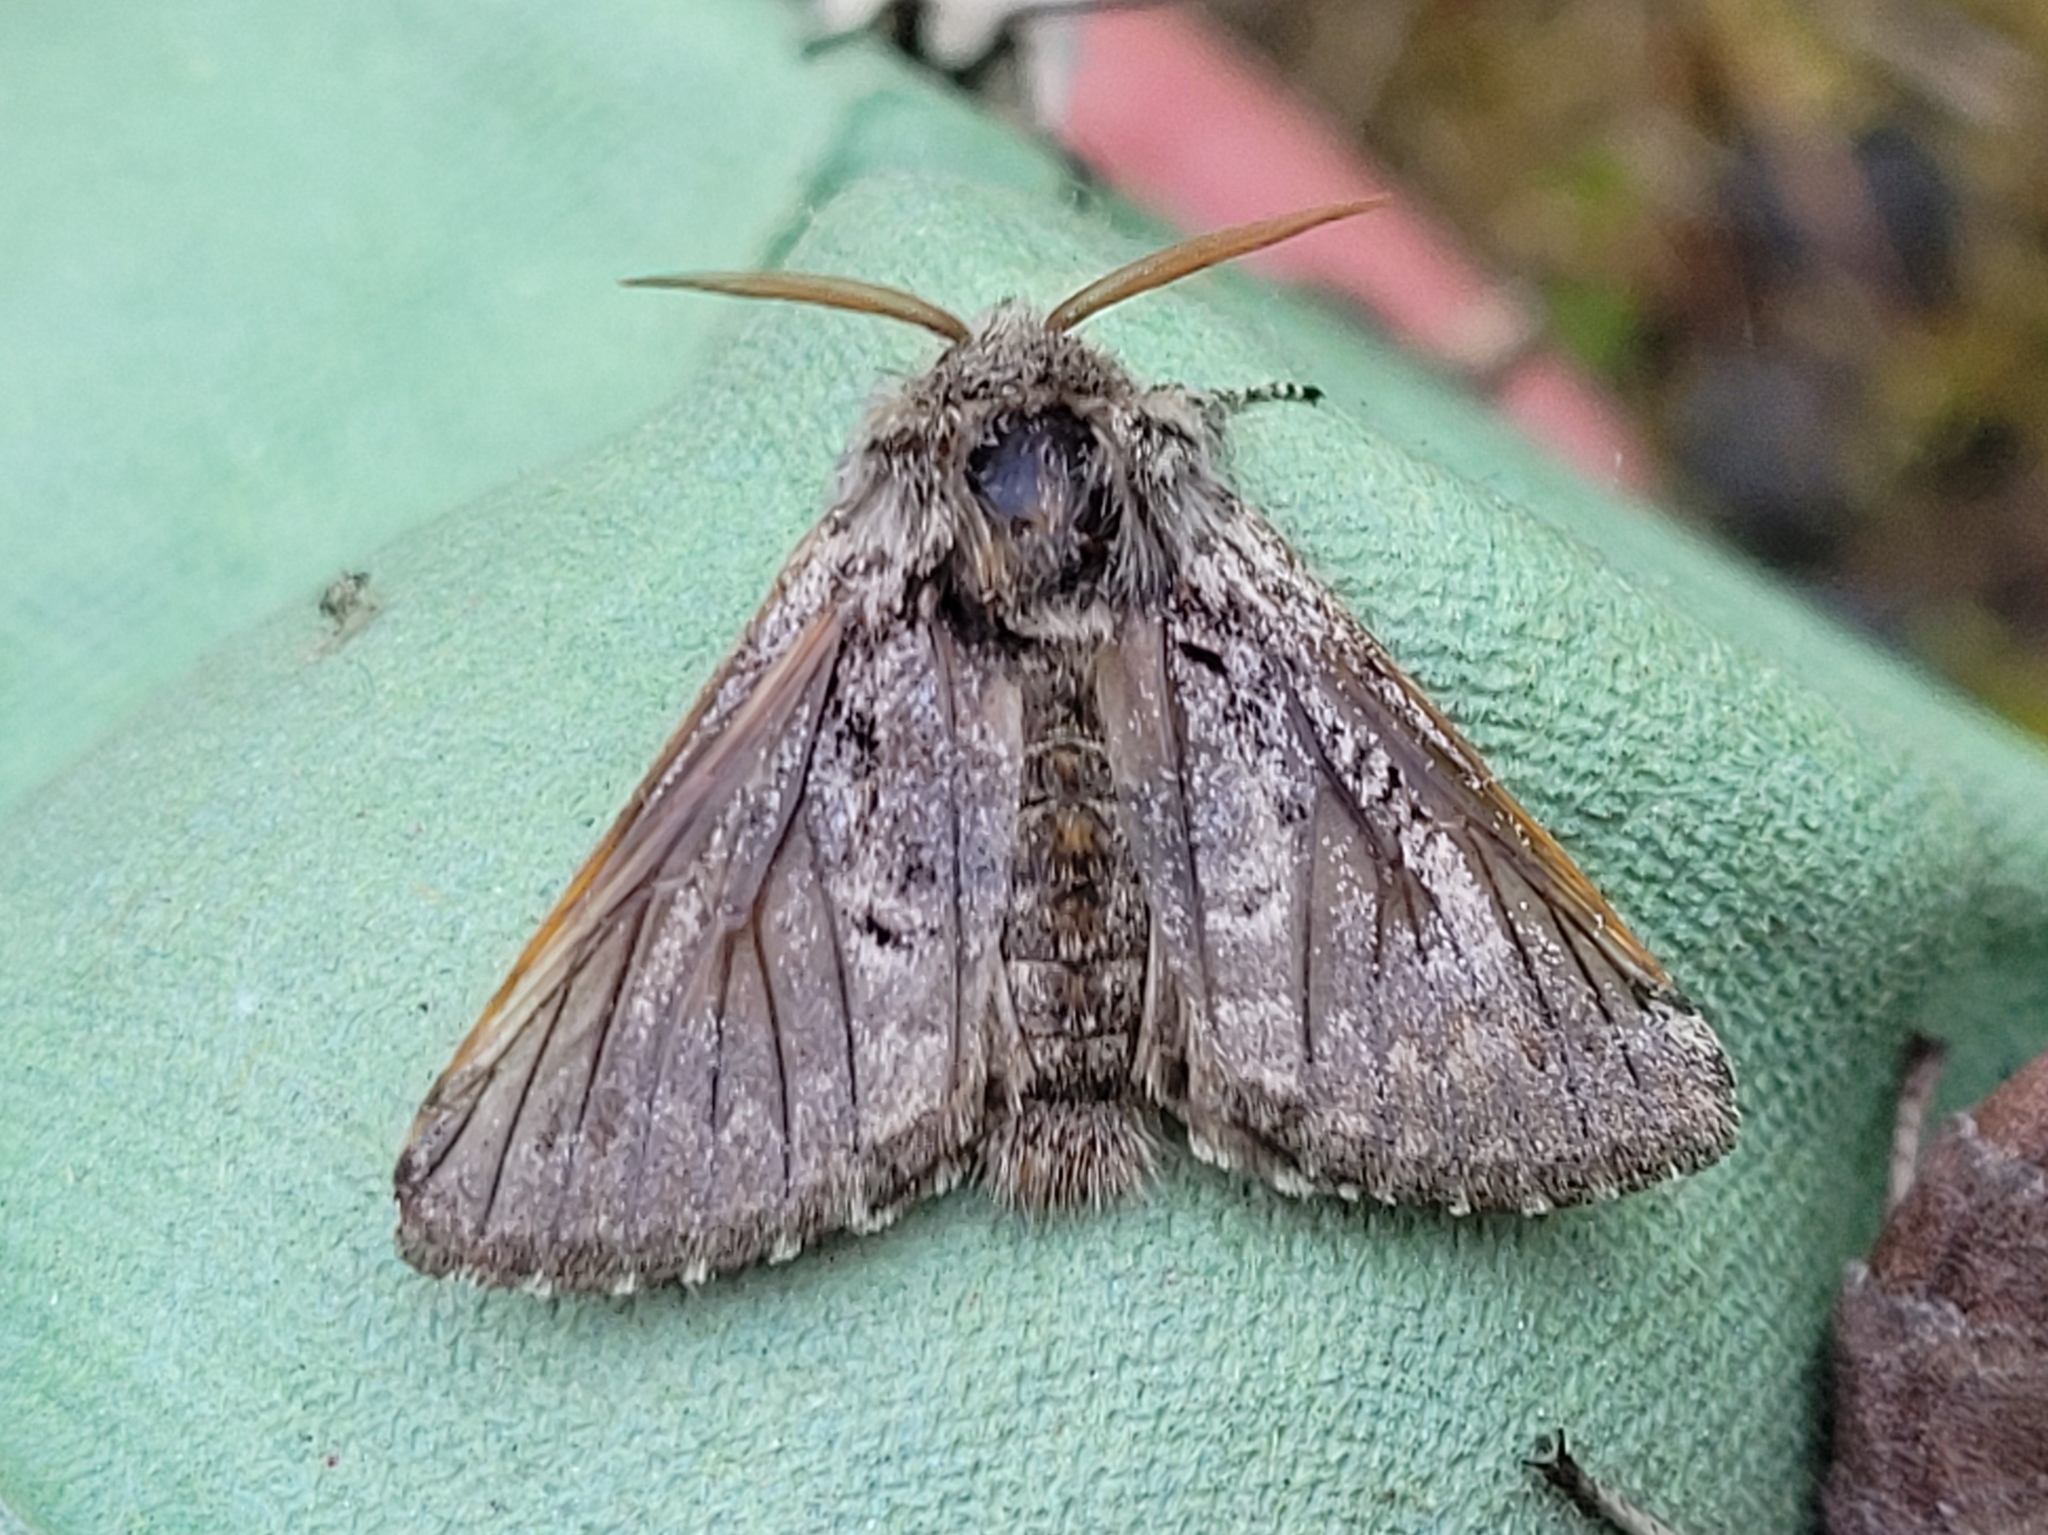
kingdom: Animalia
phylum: Arthropoda
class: Insecta
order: Lepidoptera
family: Noctuidae
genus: Colocasia
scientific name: Colocasia coryli
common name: Nut-tree tussock
